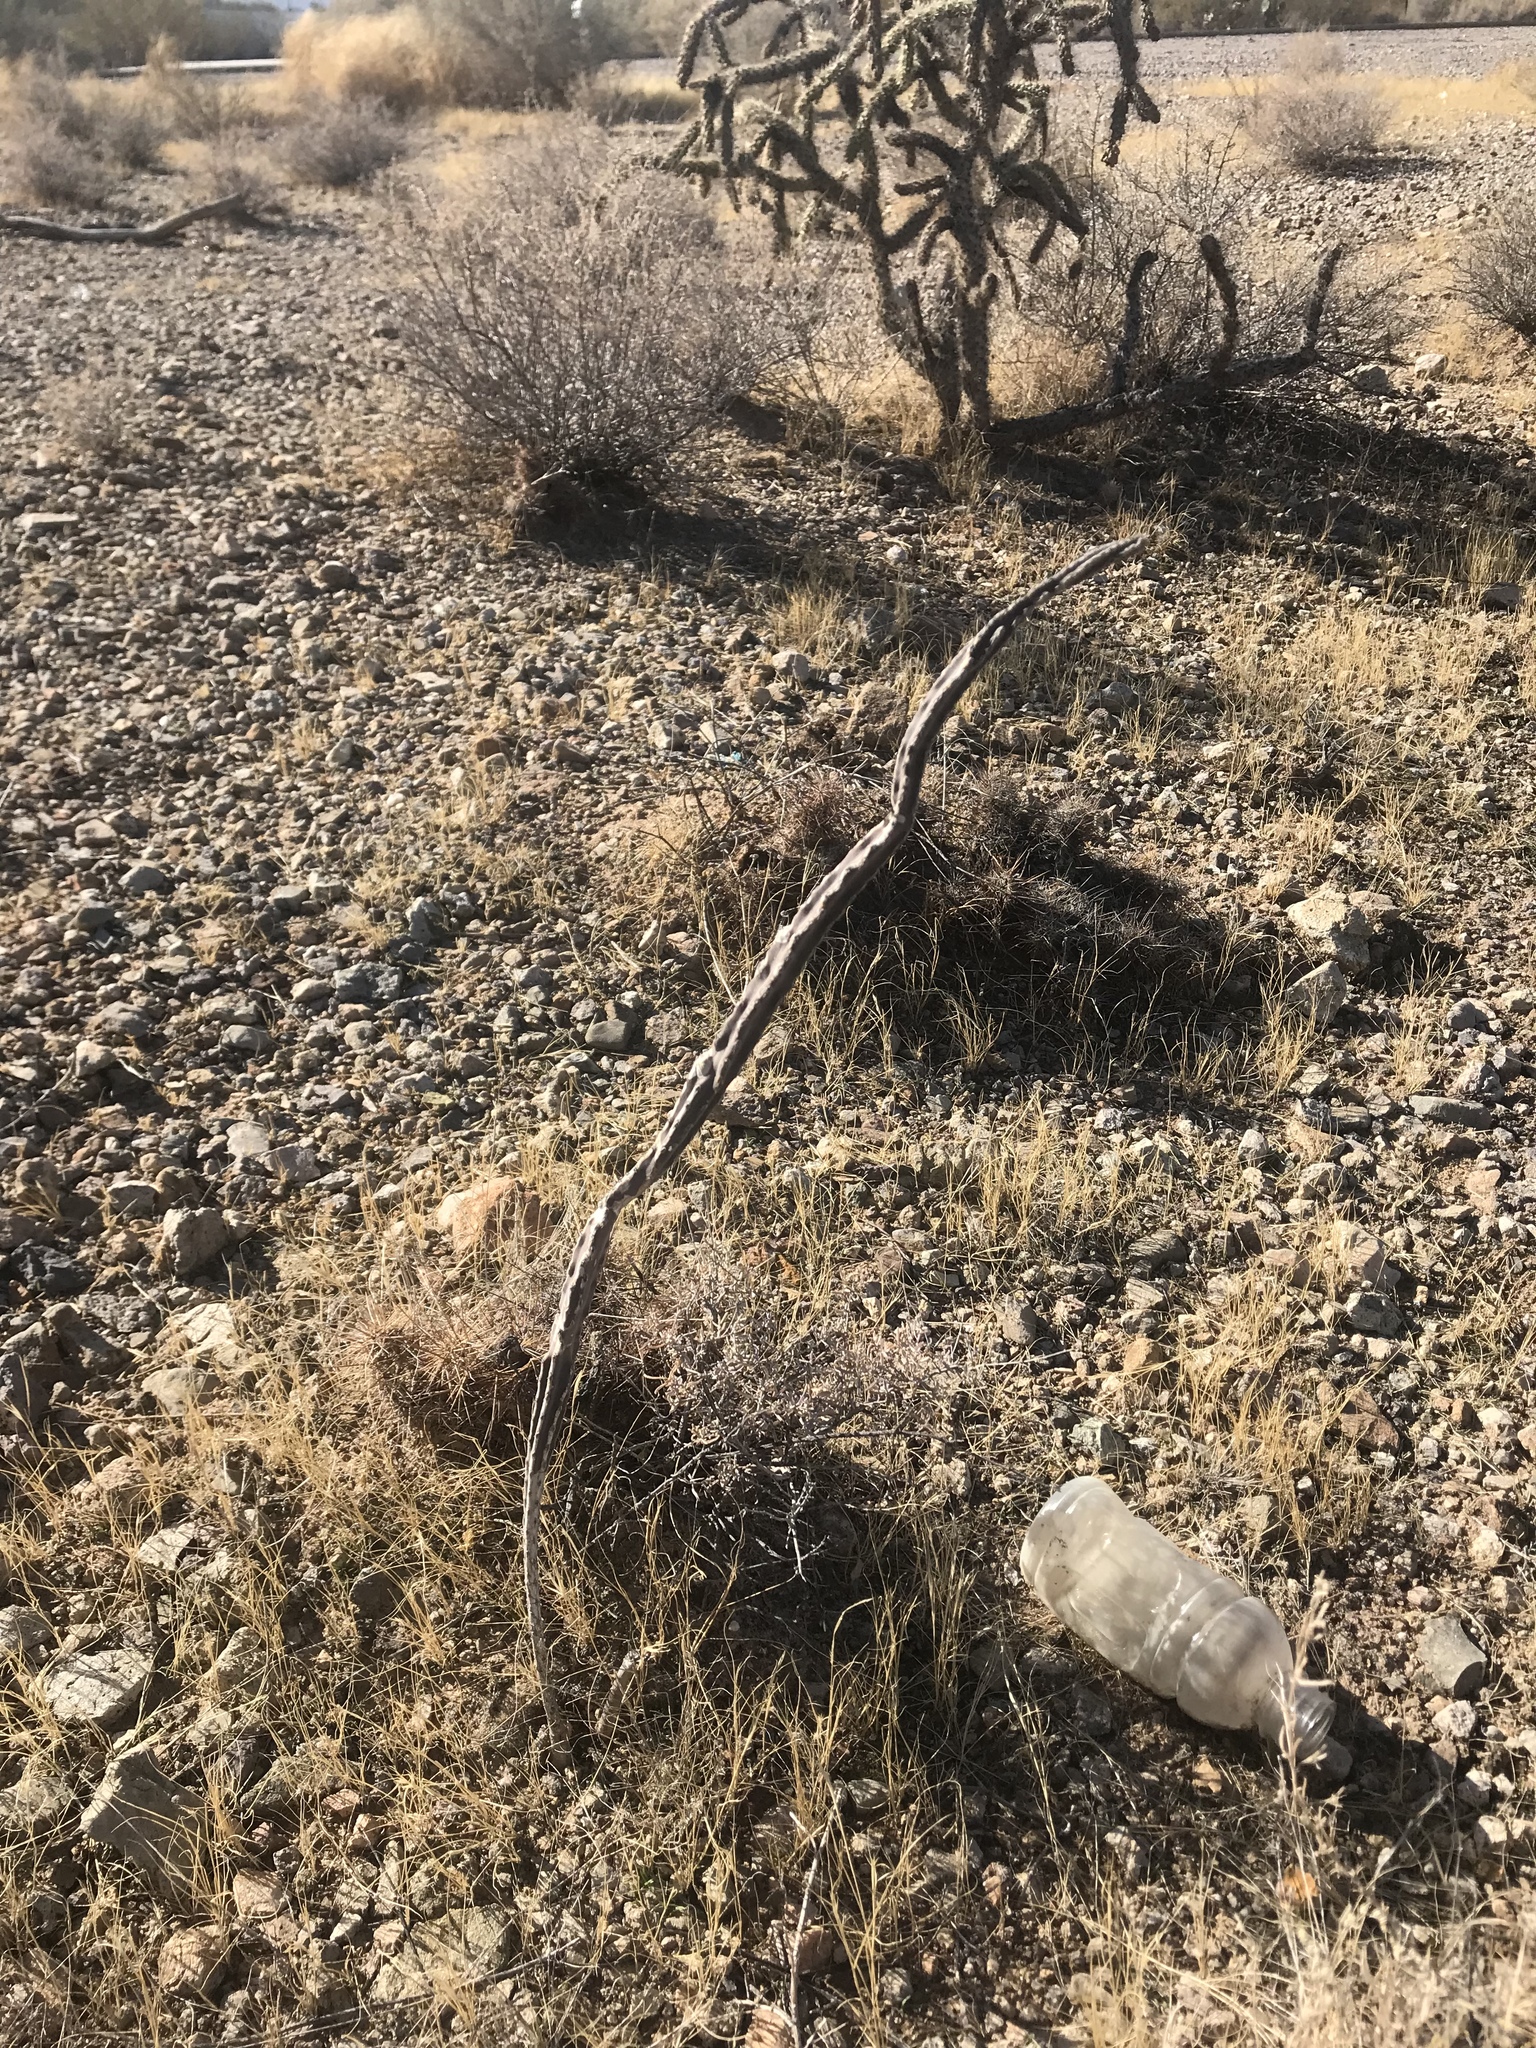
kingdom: Plantae
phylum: Tracheophyta
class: Magnoliopsida
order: Caryophyllales
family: Cactaceae
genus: Peniocereus
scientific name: Peniocereus greggii
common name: Desert night-blooming cereus
